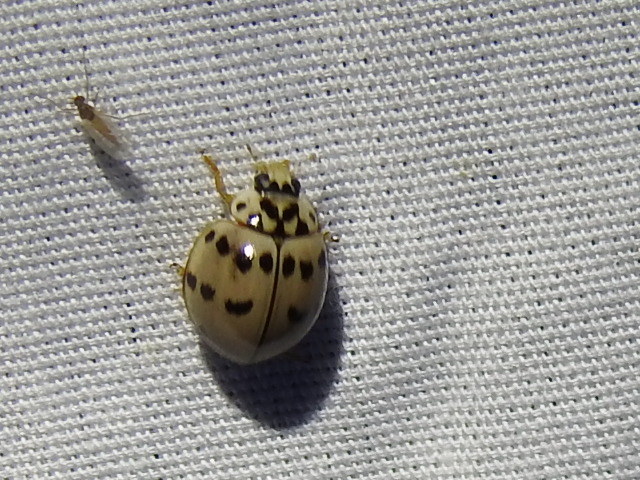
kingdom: Animalia
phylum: Arthropoda
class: Insecta
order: Coleoptera
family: Coccinellidae
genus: Olla
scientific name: Olla v-nigrum
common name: Ashy gray lady beetle
